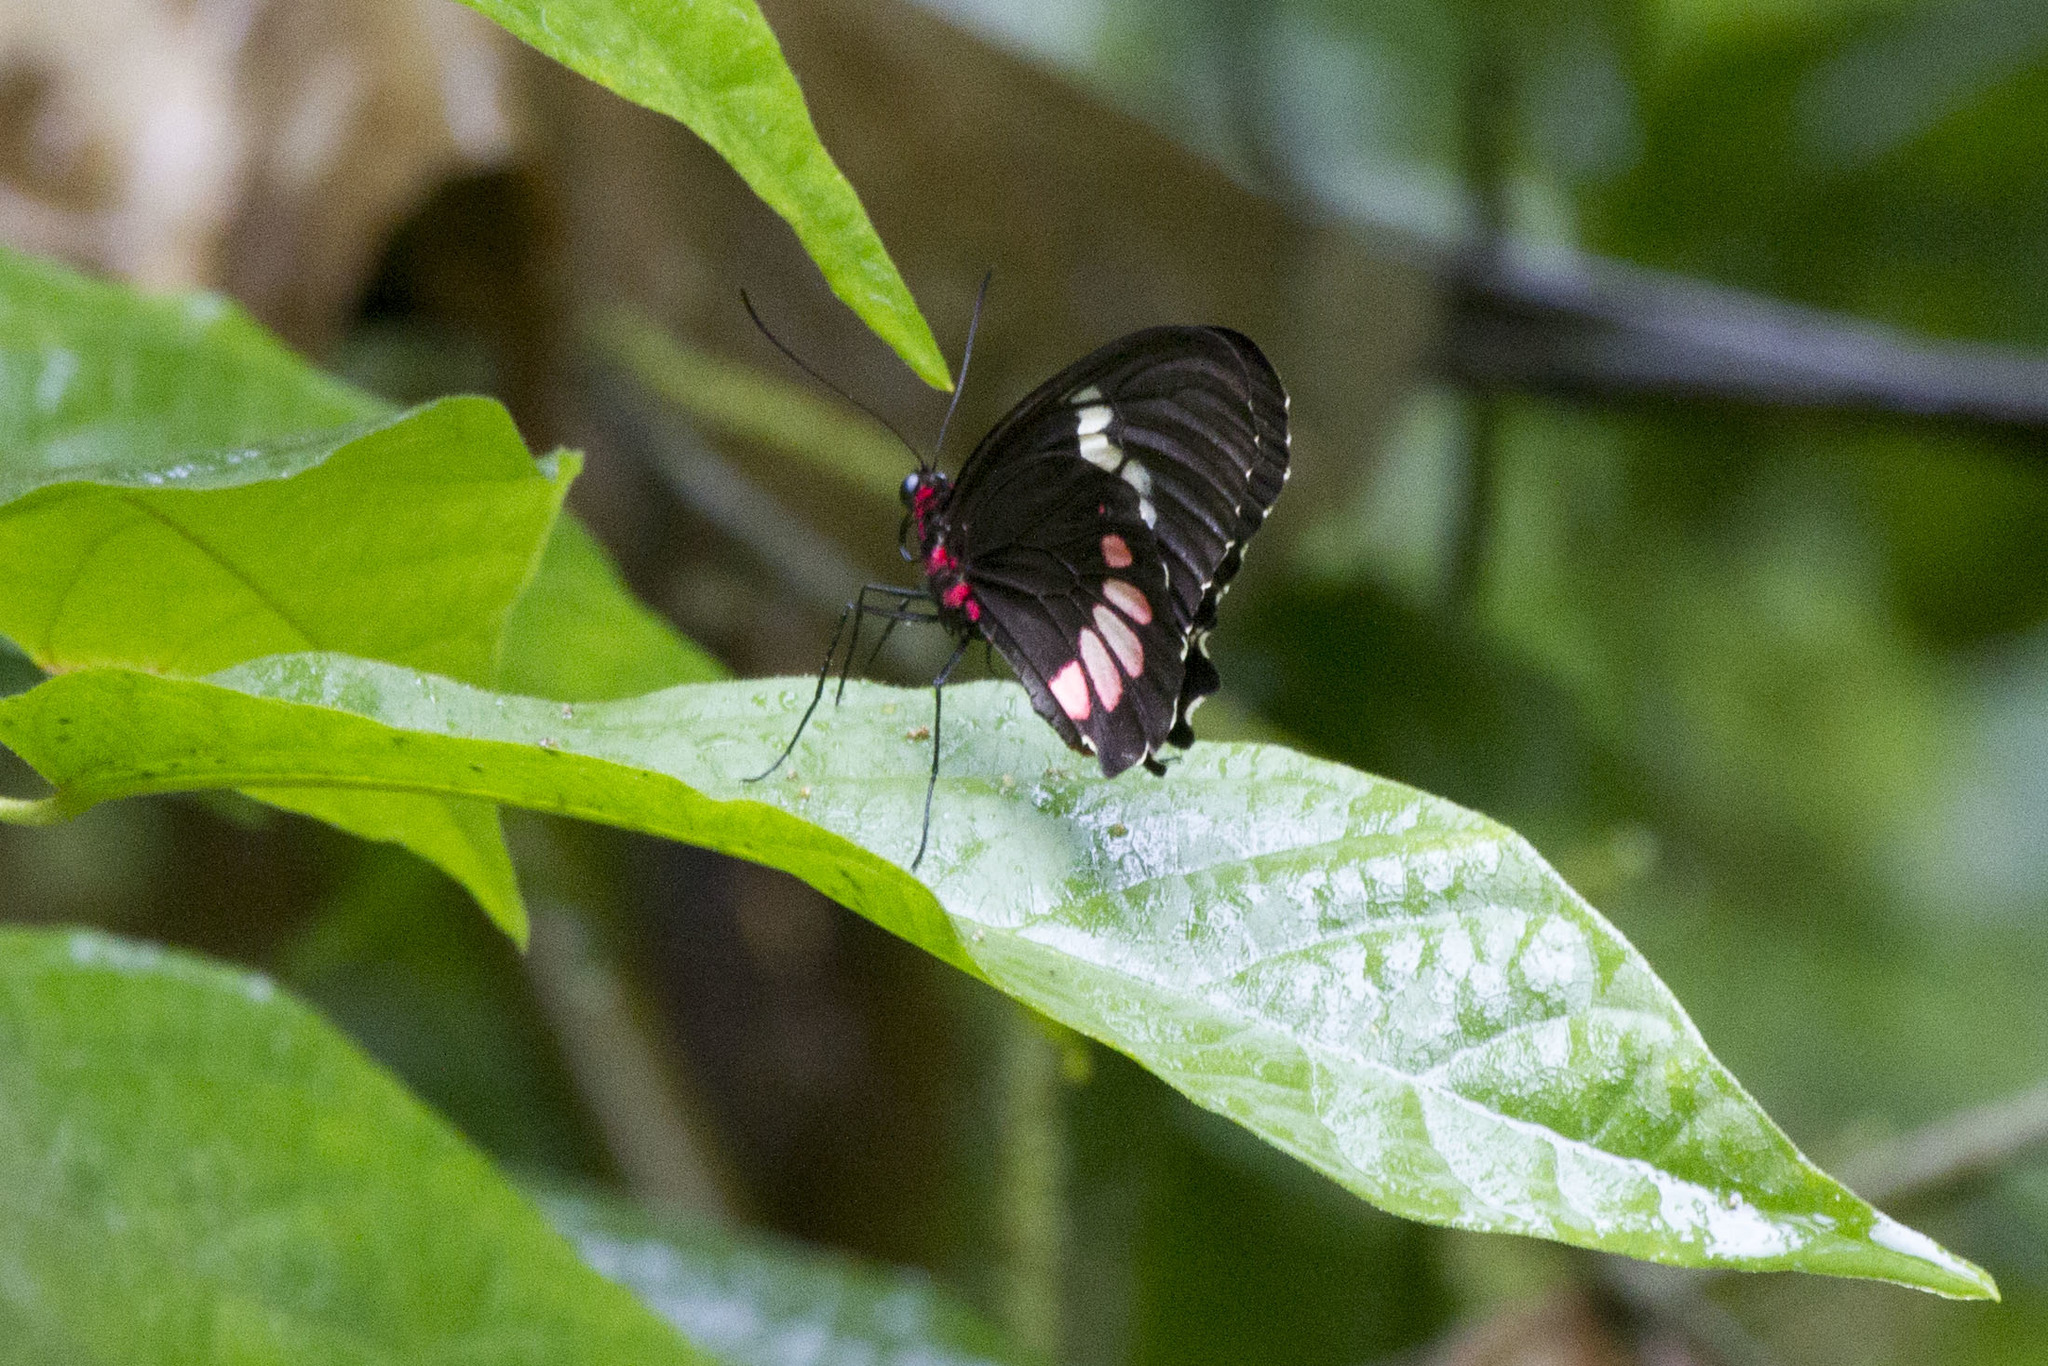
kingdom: Animalia
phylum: Arthropoda
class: Insecta
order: Lepidoptera
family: Papilionidae
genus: Parides
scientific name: Parides panares
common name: Wedge-spotted cattleheart
